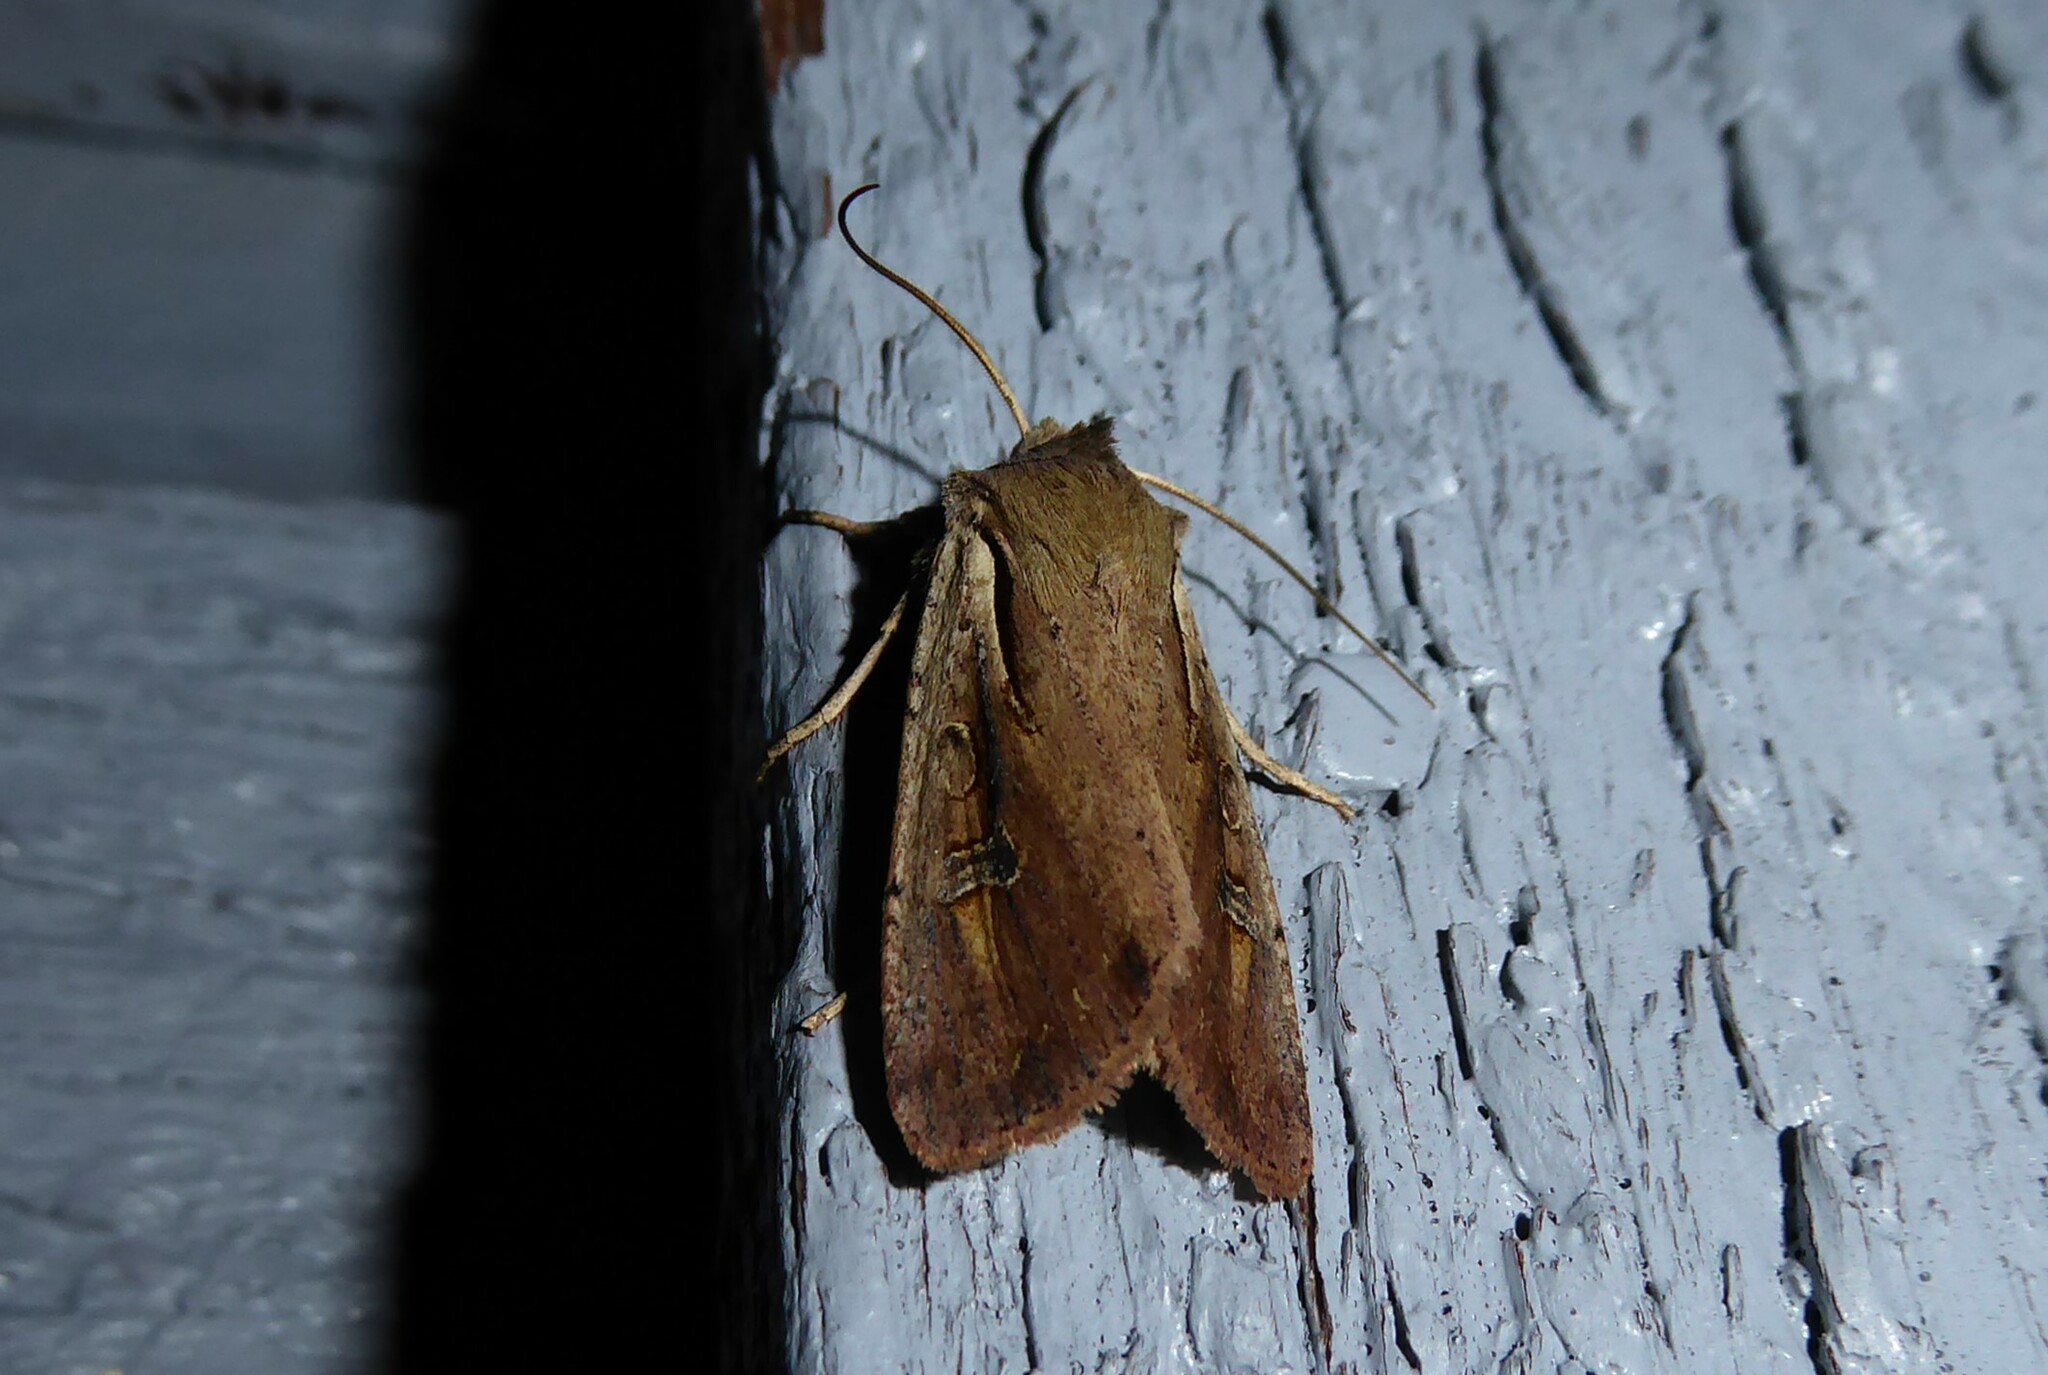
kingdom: Animalia
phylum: Arthropoda
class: Insecta
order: Lepidoptera
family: Noctuidae
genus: Ichneutica
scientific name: Ichneutica atristriga
